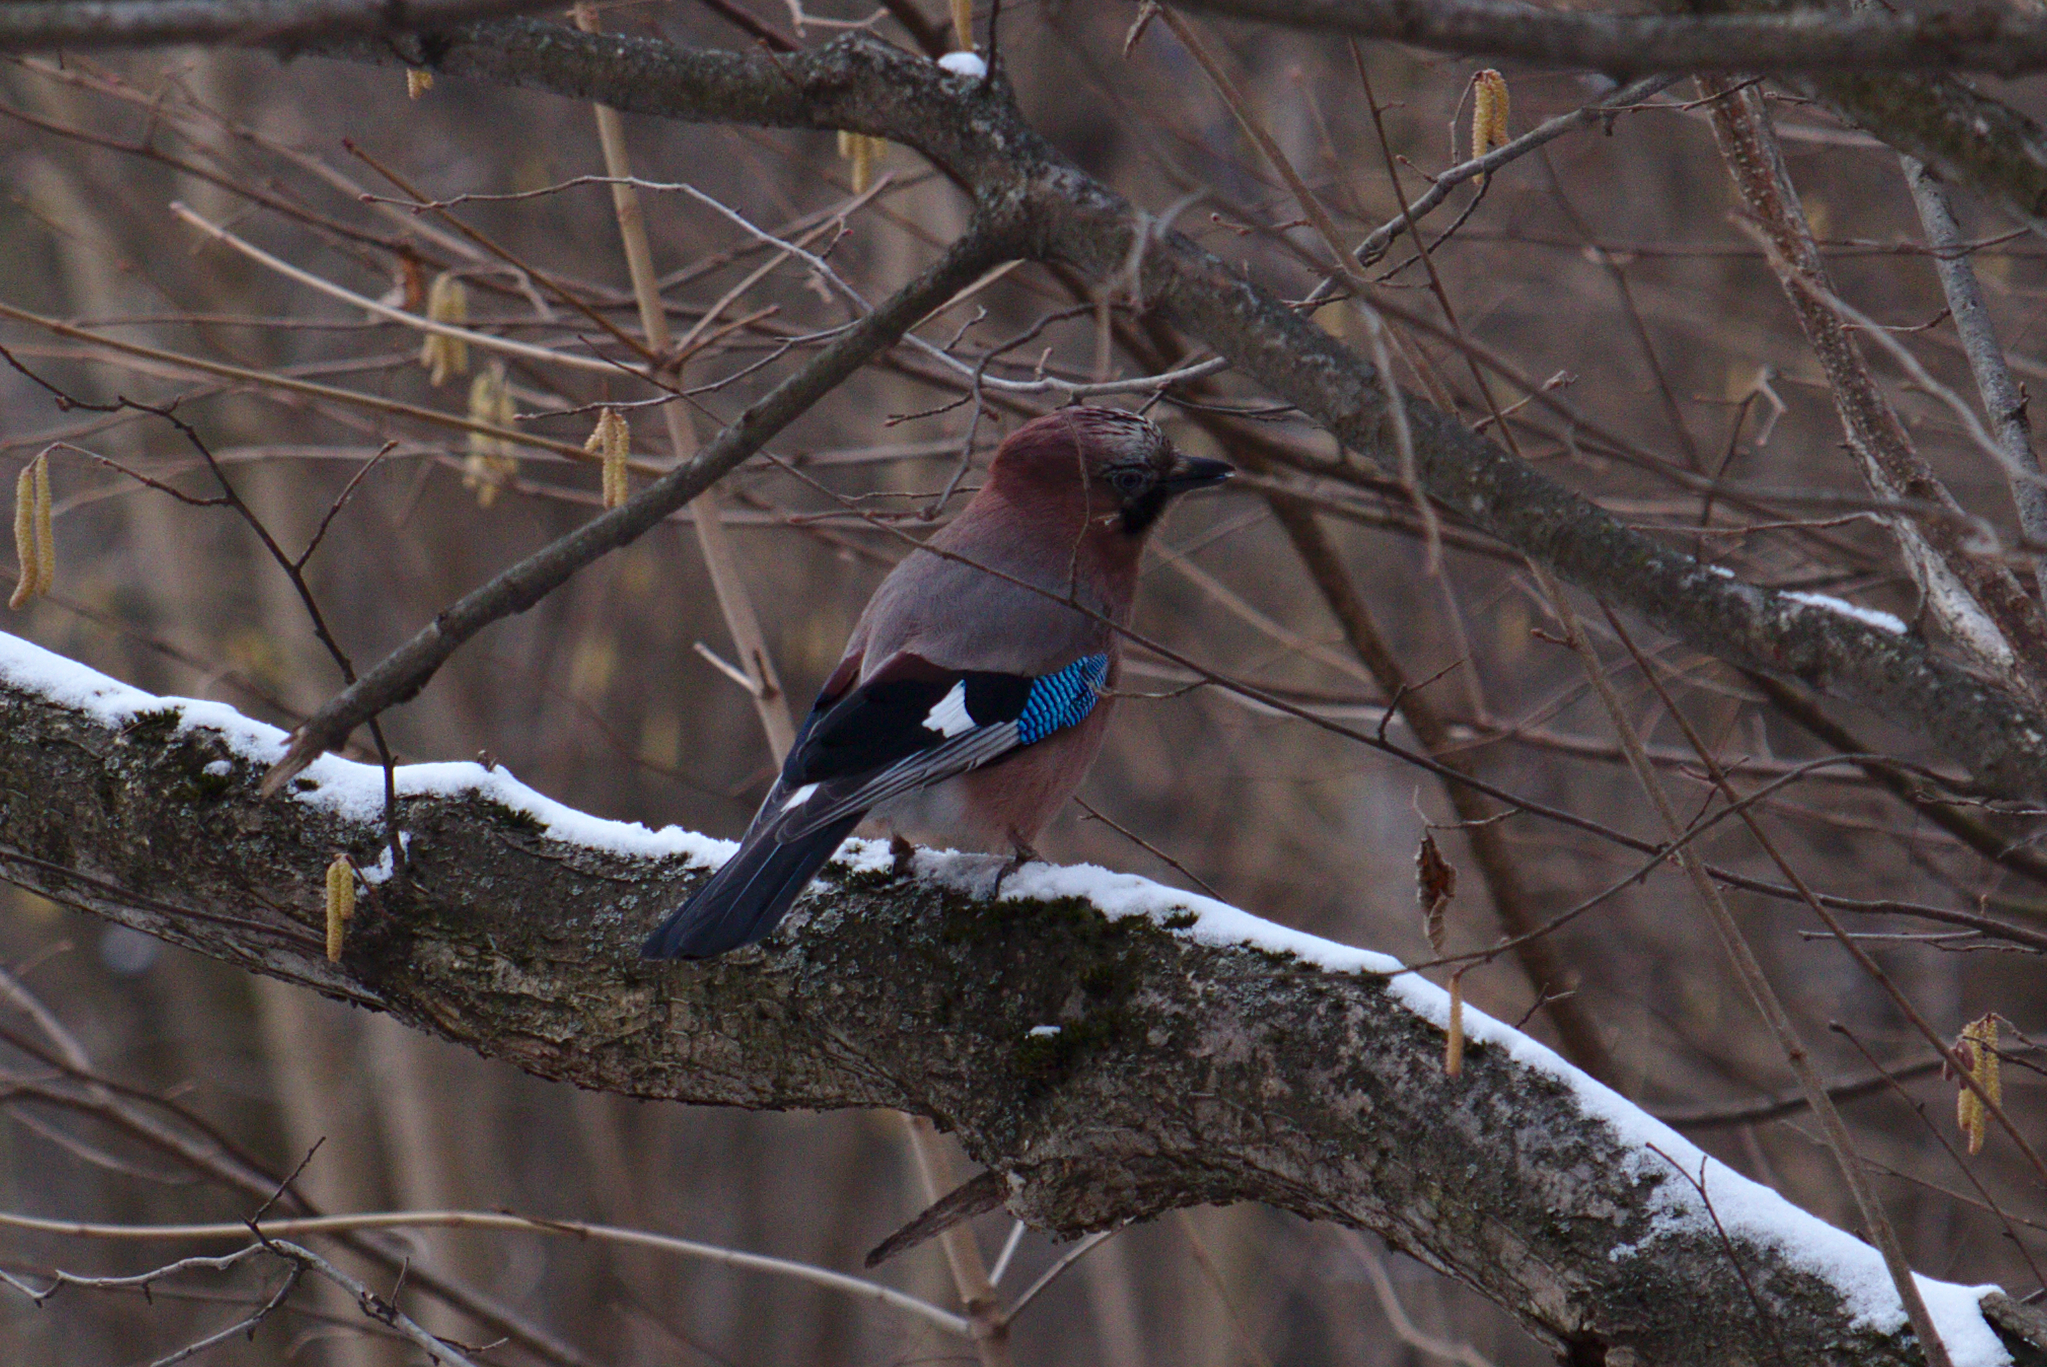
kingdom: Animalia
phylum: Chordata
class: Aves
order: Passeriformes
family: Corvidae
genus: Garrulus
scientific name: Garrulus glandarius
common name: Eurasian jay
